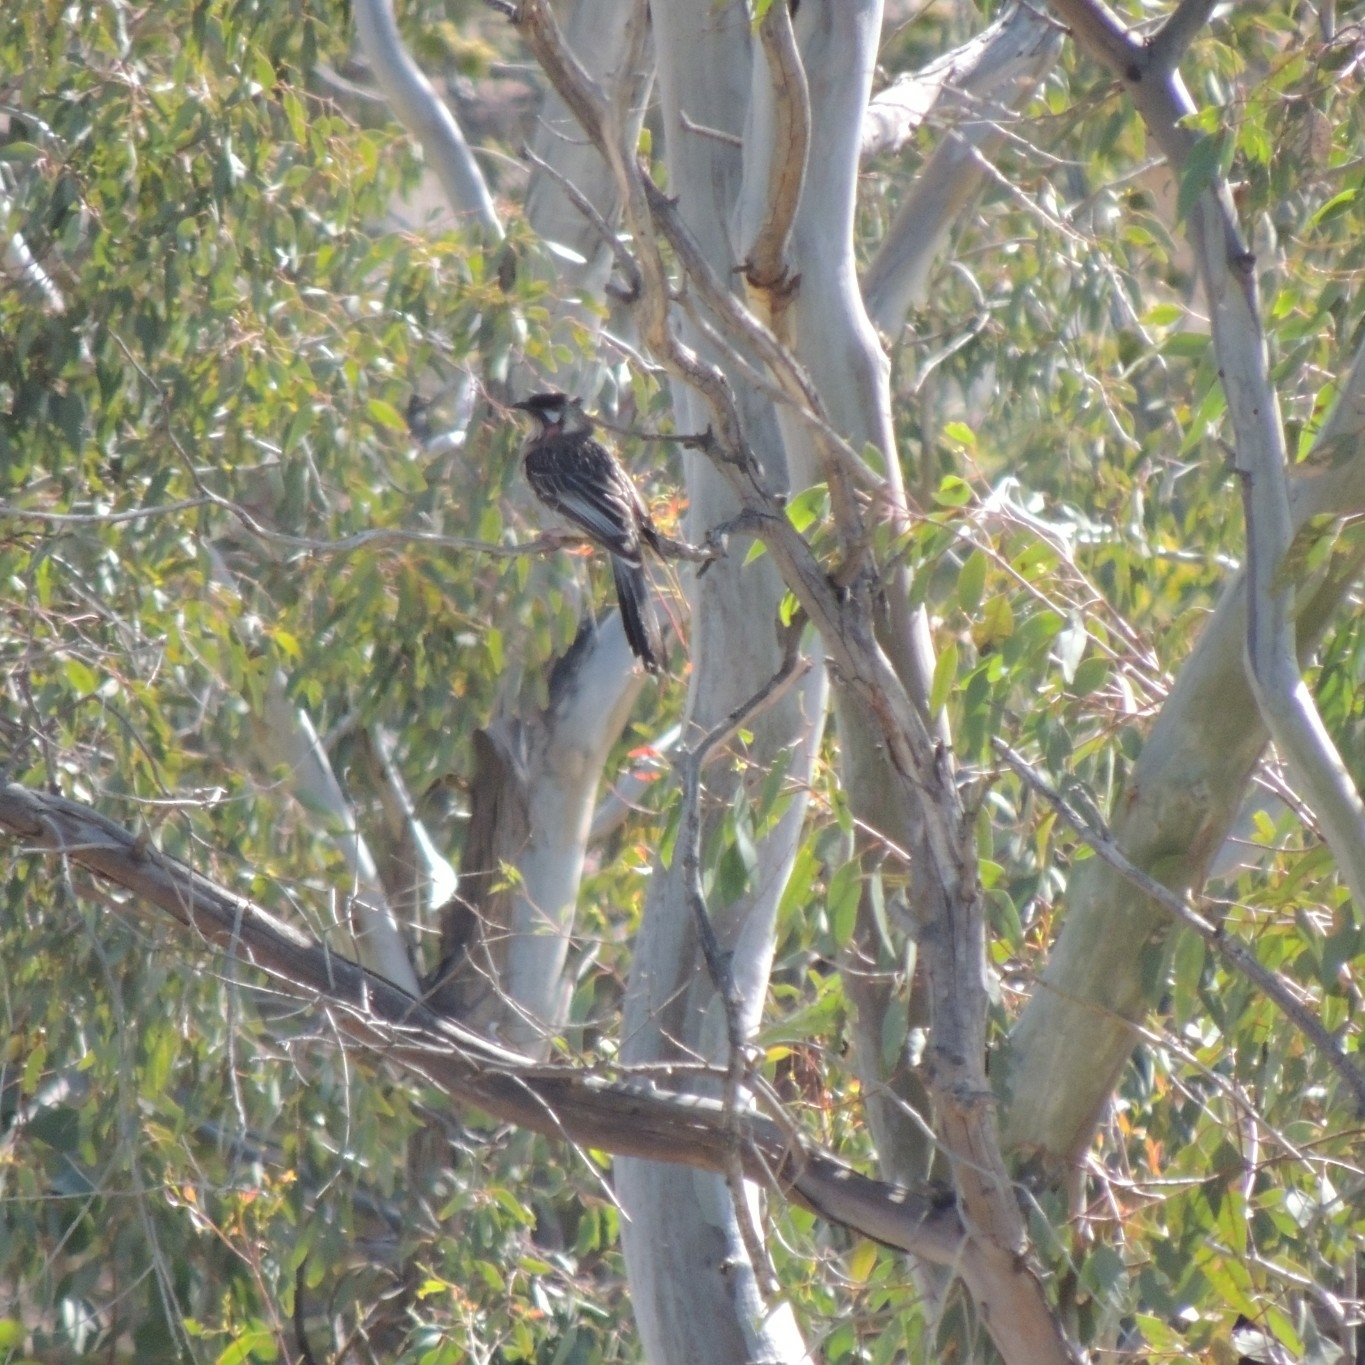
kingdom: Animalia
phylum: Chordata
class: Aves
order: Passeriformes
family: Meliphagidae
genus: Anthochaera
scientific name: Anthochaera carunculata
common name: Red wattlebird
